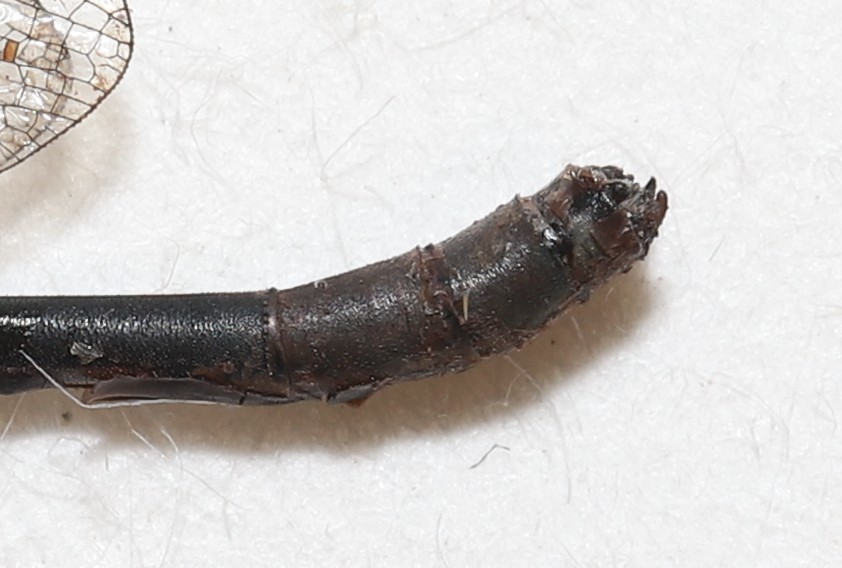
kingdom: Animalia
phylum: Arthropoda
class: Insecta
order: Odonata
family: Coenagrionidae
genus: Enallagma
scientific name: Enallagma annexum
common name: Northern bluet
